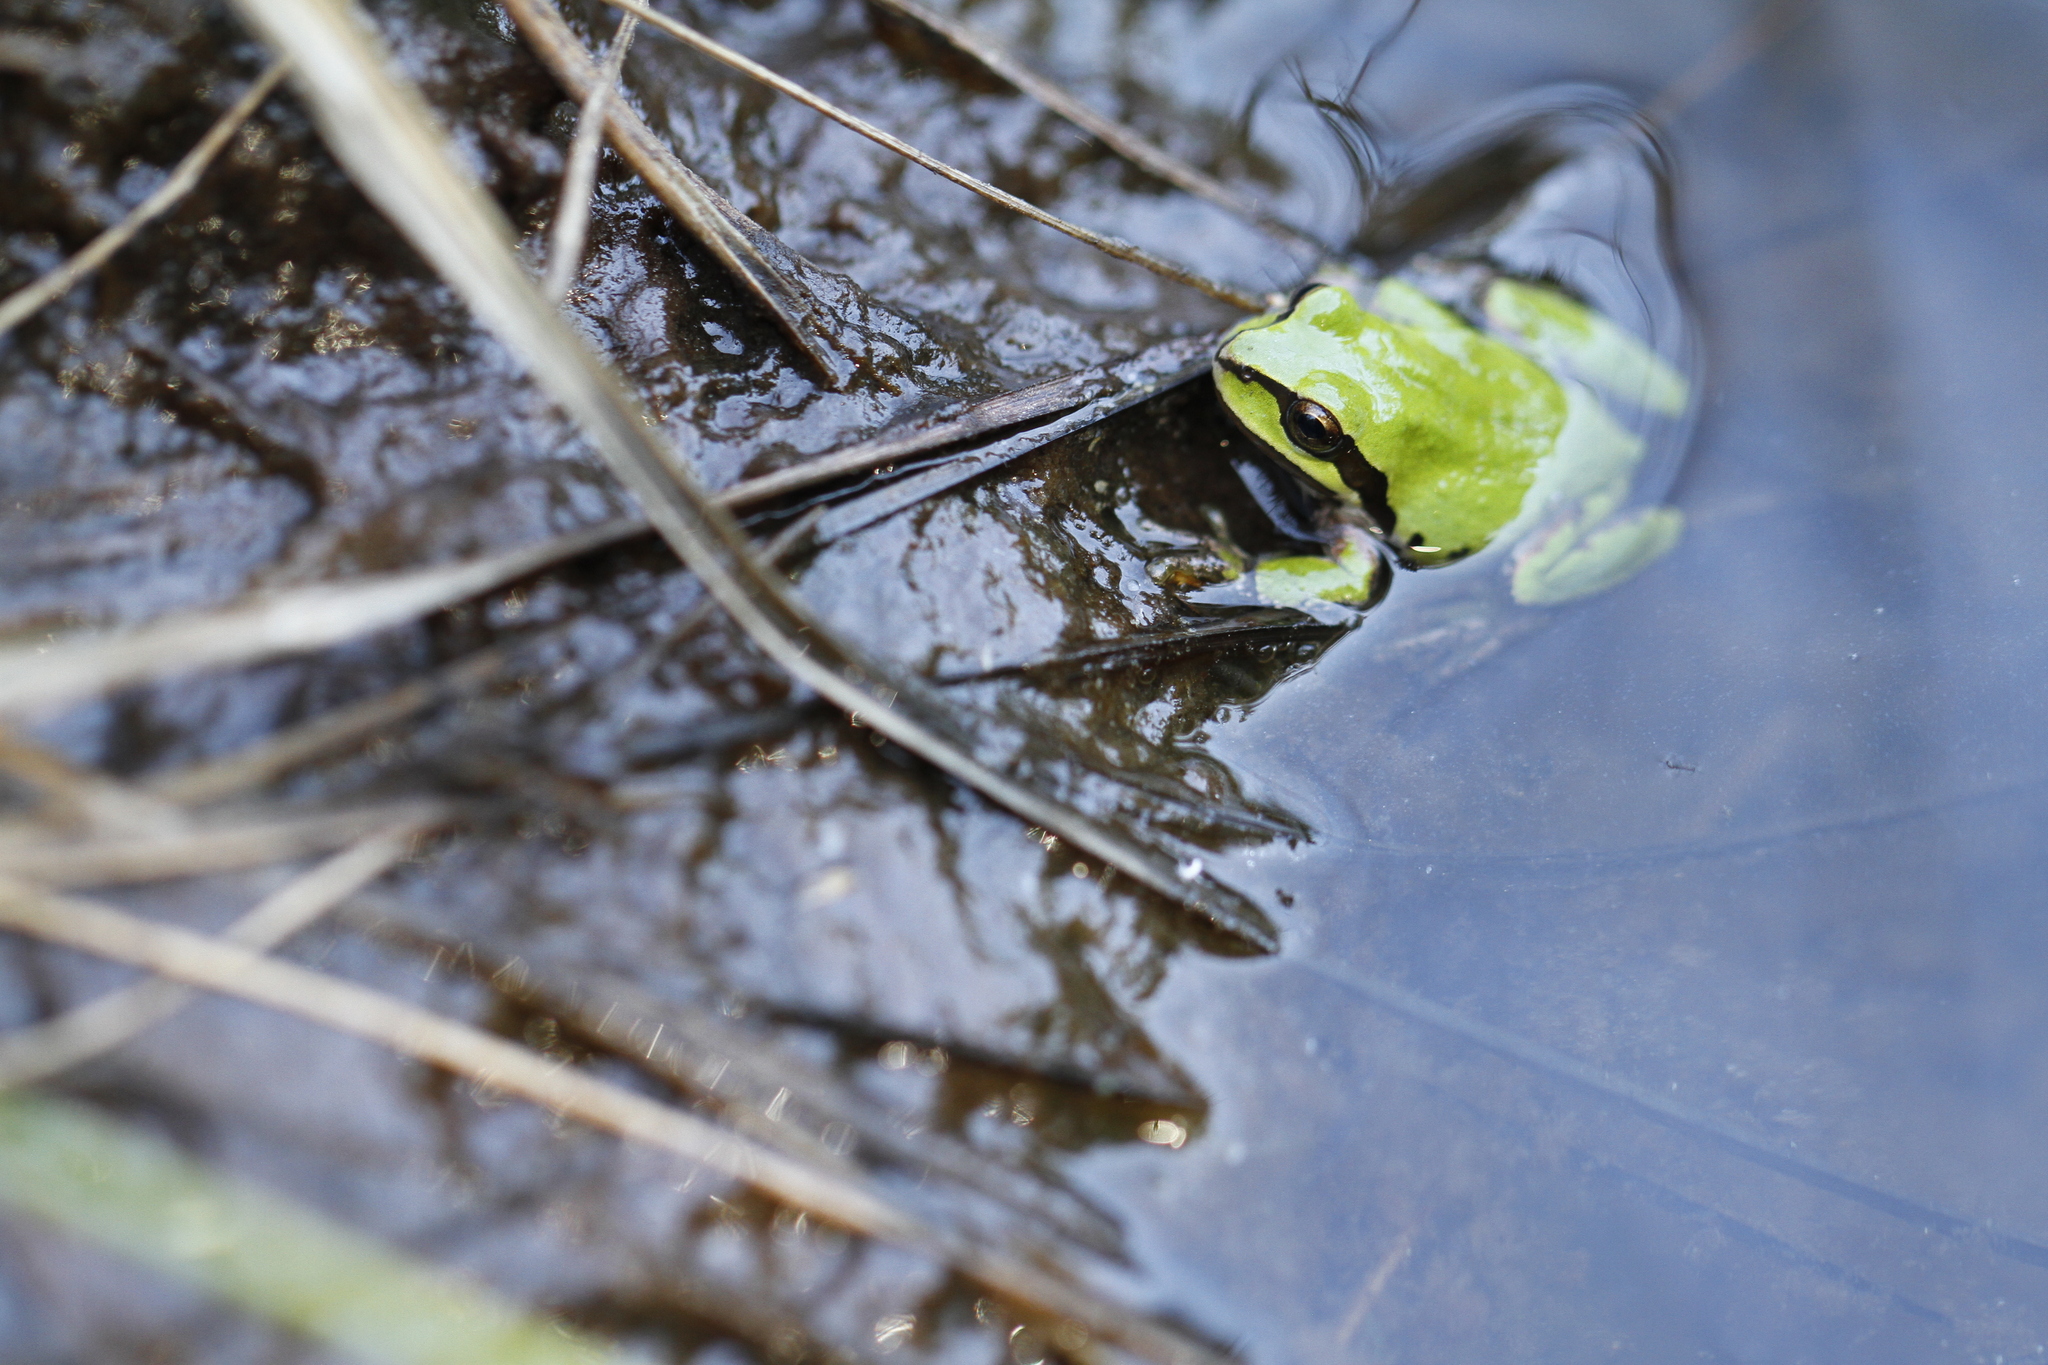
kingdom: Animalia
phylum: Chordata
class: Amphibia
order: Anura
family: Hylidae
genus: Pseudacris
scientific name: Pseudacris regilla
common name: Pacific chorus frog
